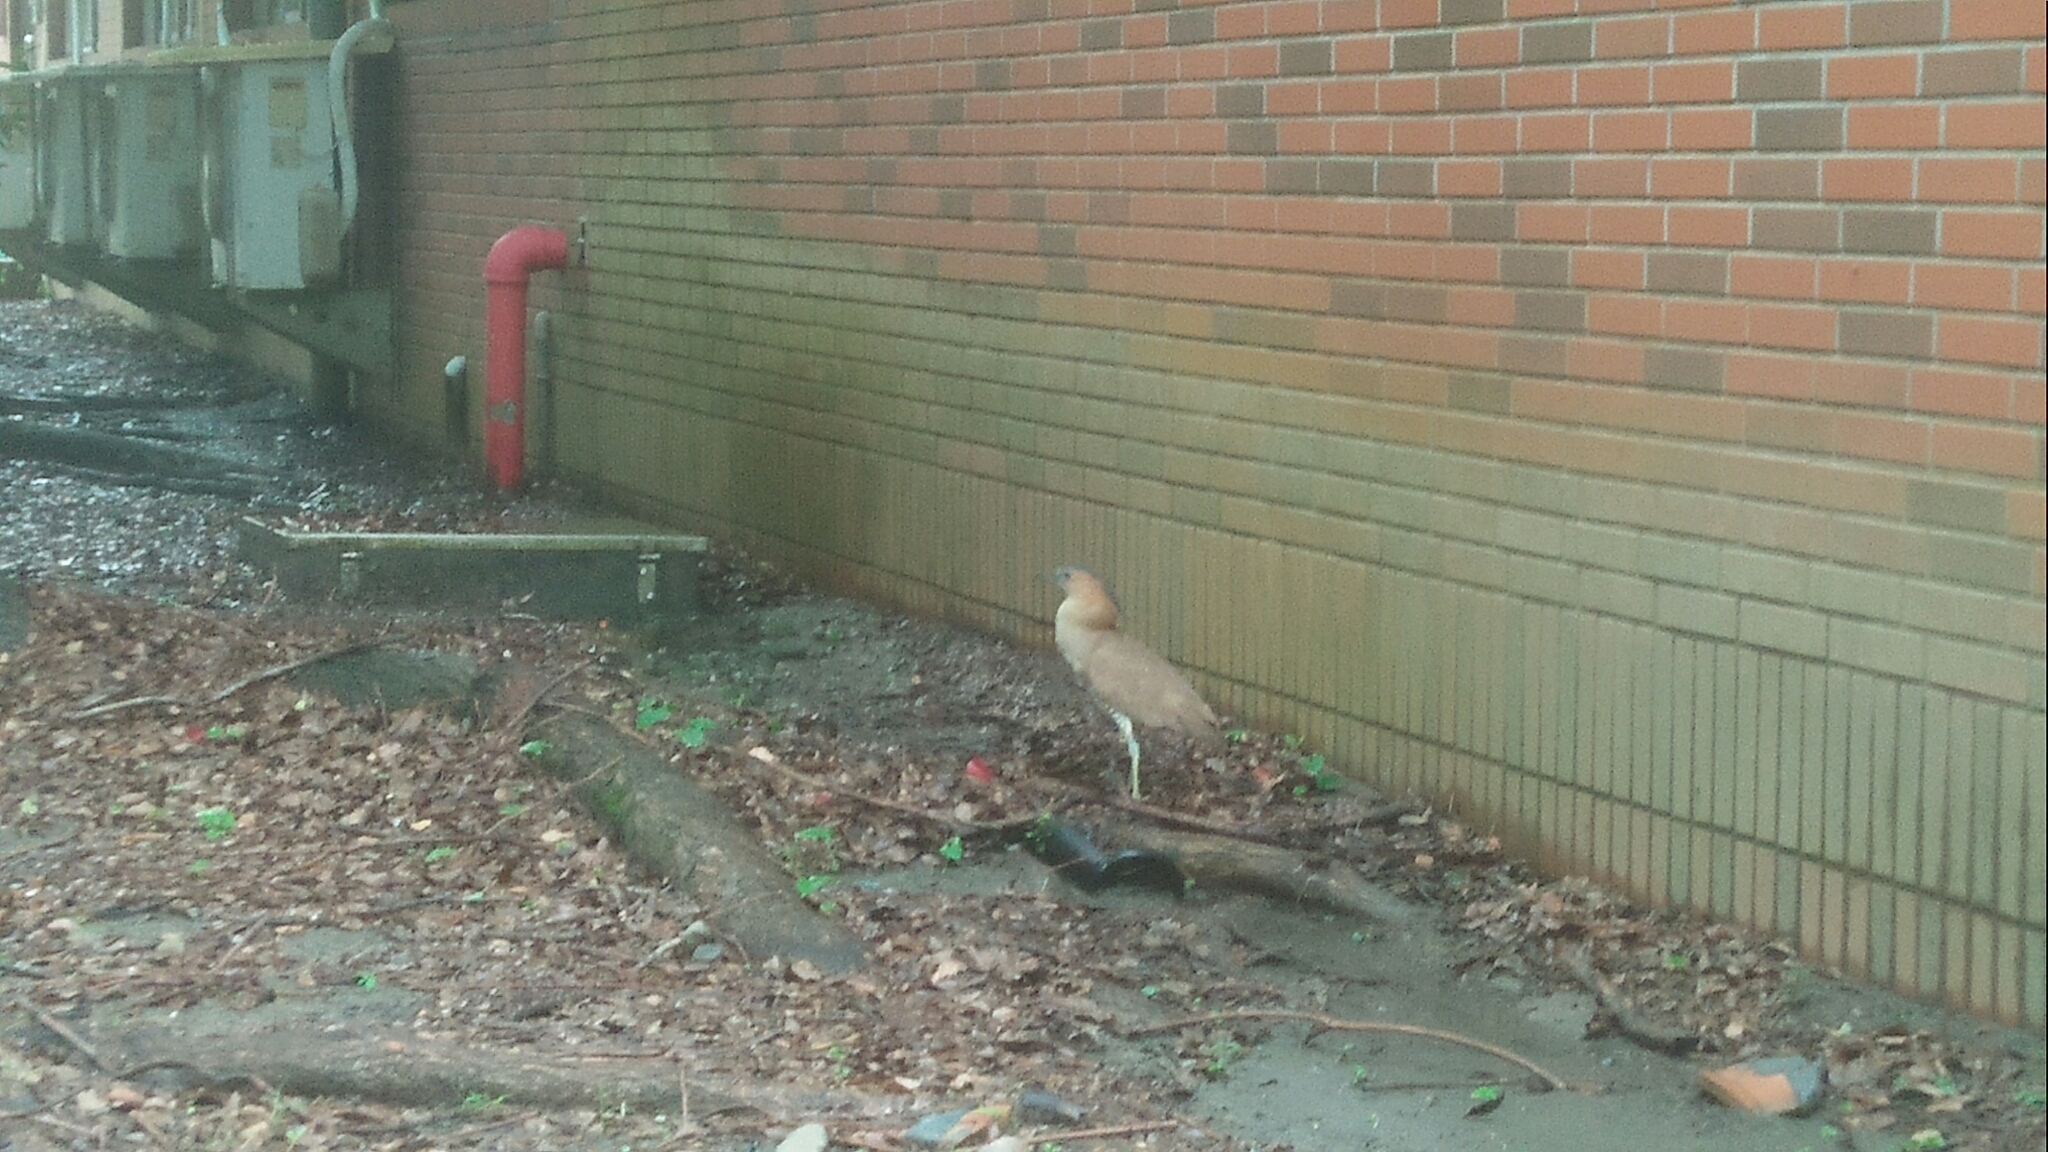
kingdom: Animalia
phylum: Chordata
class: Aves
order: Pelecaniformes
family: Ardeidae
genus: Gorsachius
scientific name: Gorsachius melanolophus
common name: Malayan night heron
